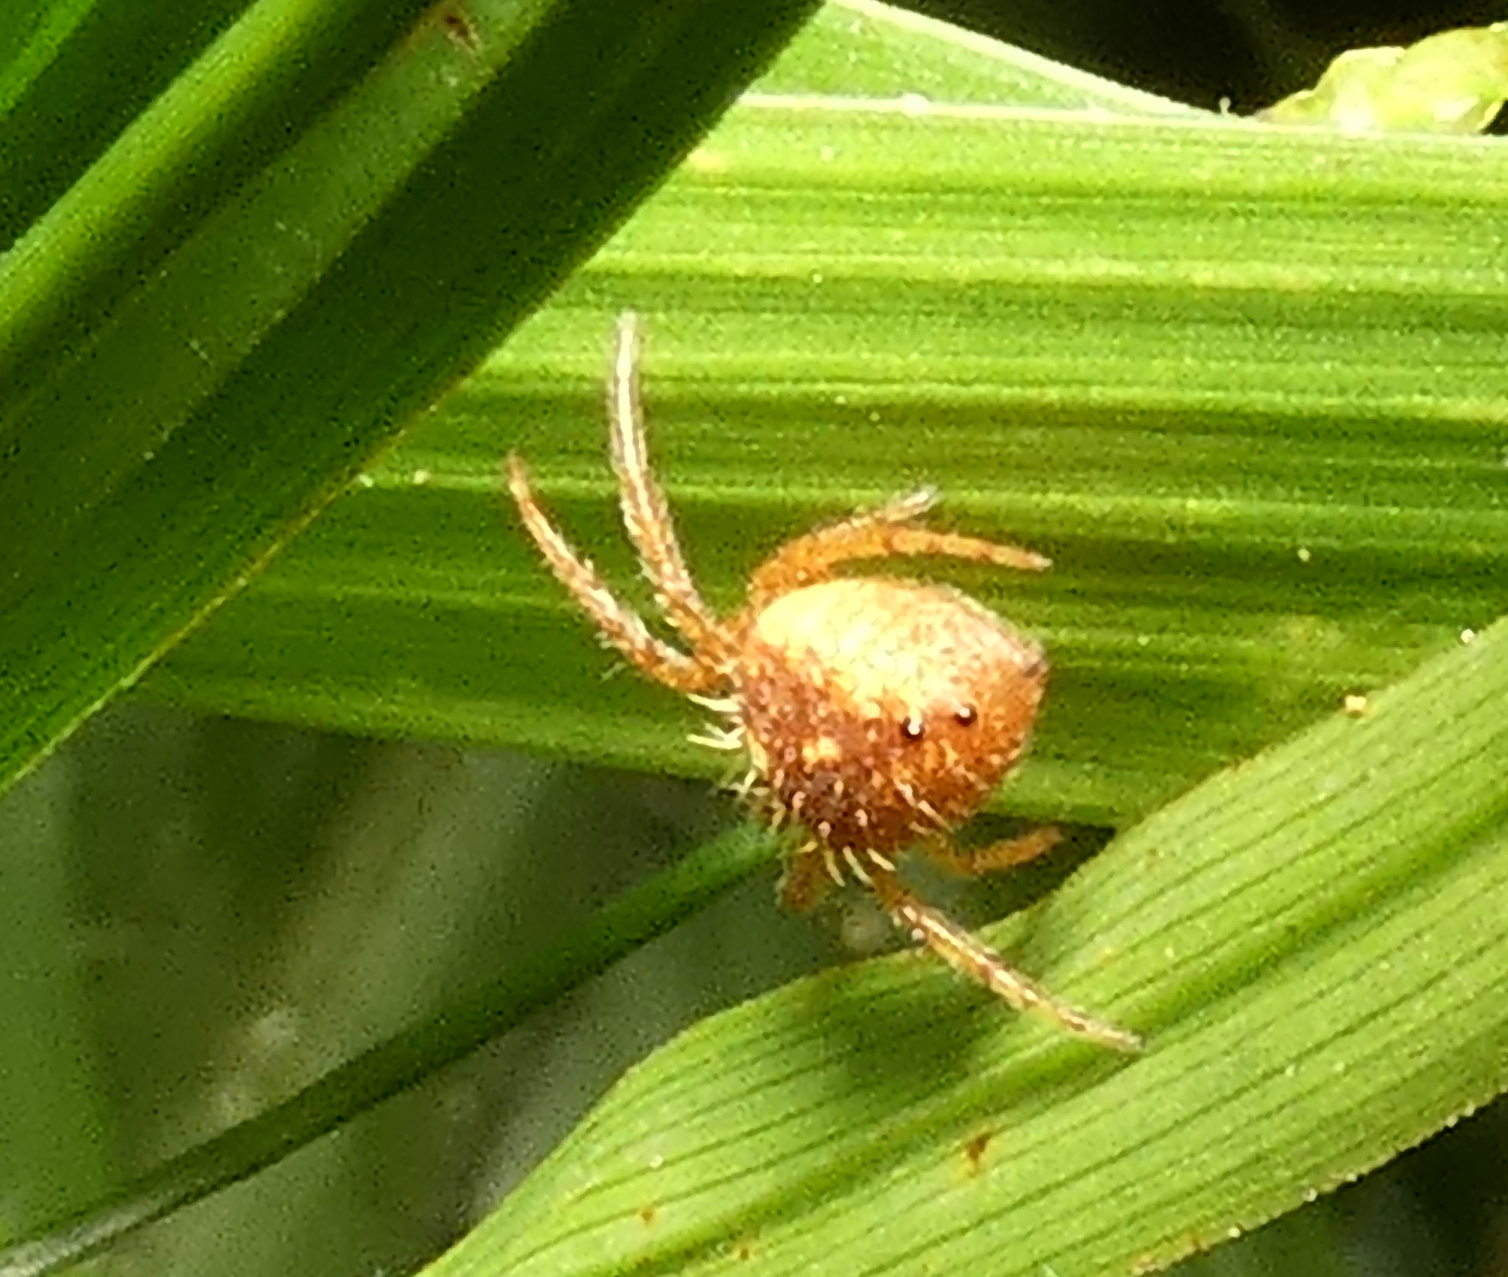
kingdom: Animalia
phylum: Arthropoda
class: Arachnida
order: Araneae
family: Araneidae
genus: Eriophora
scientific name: Eriophora edax
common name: Orb weavers
